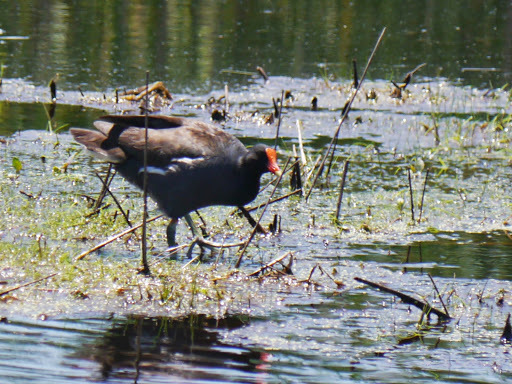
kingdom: Animalia
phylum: Chordata
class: Aves
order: Gruiformes
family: Rallidae
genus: Gallinula
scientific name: Gallinula chloropus
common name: Common moorhen
